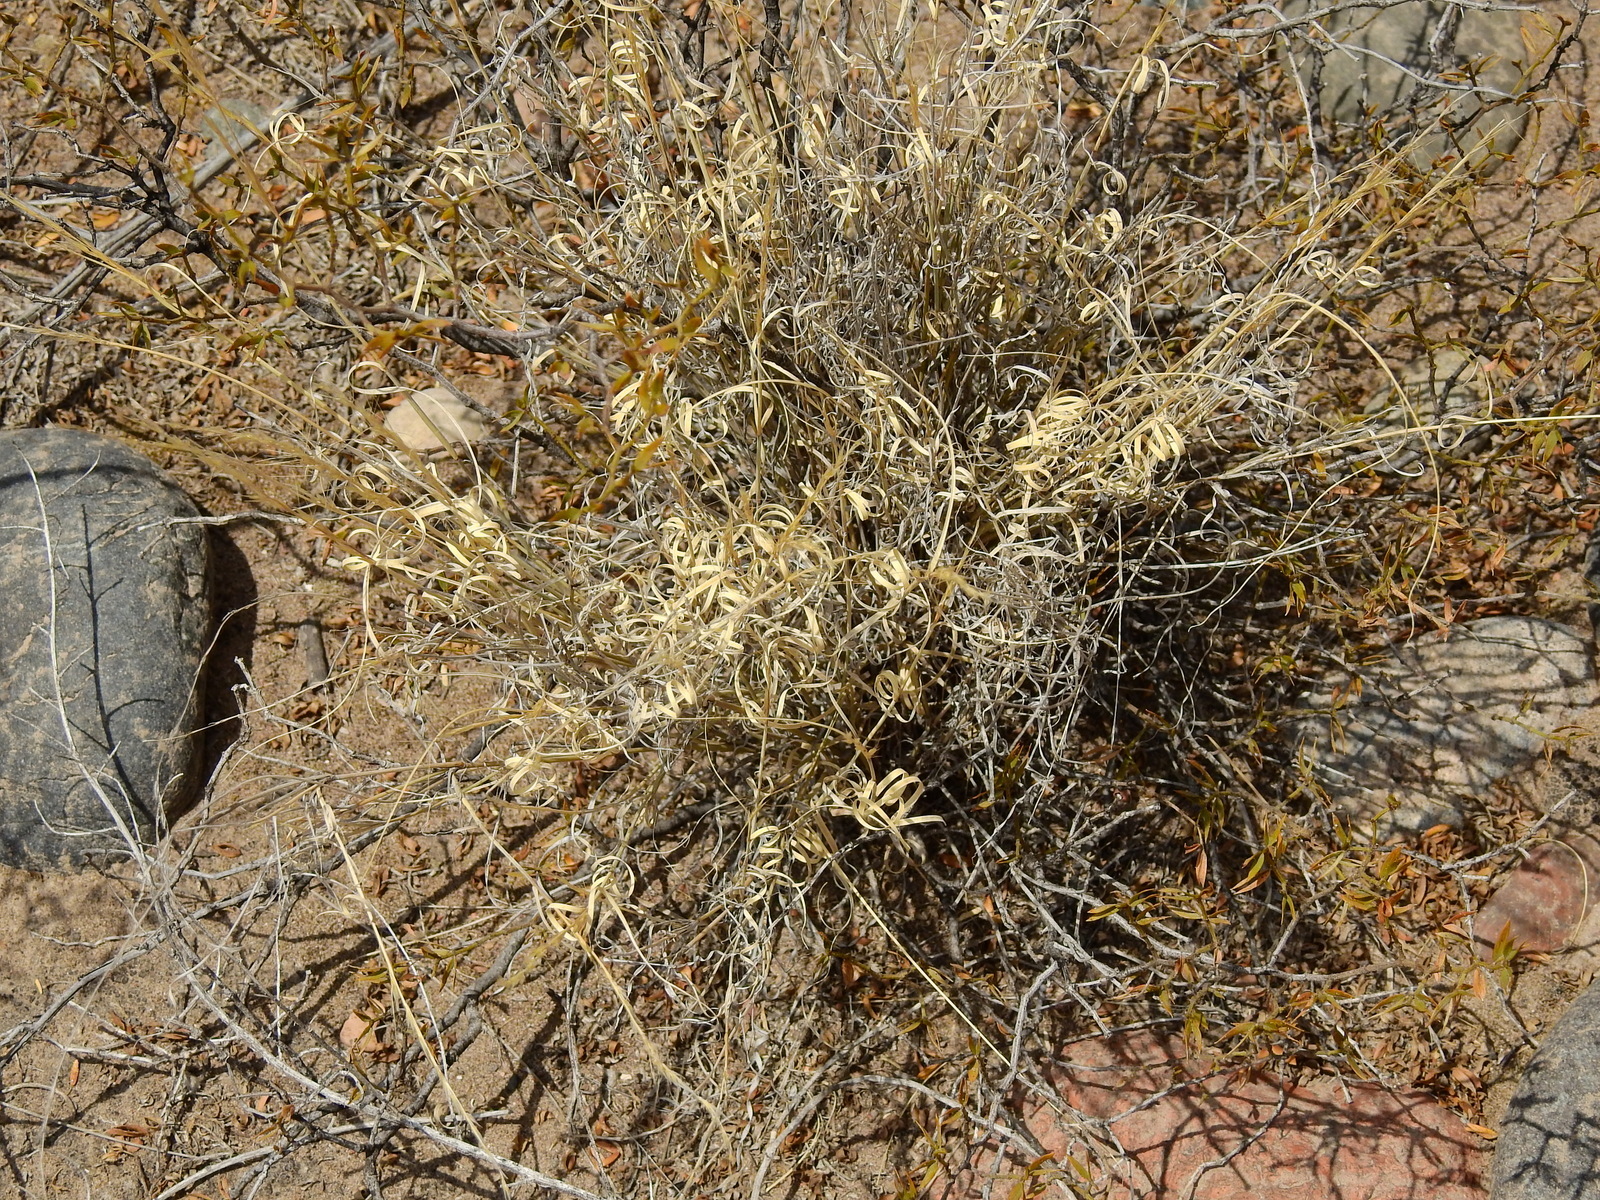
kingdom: Plantae
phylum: Tracheophyta
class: Liliopsida
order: Poales
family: Poaceae
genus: Aristida
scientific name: Aristida mendocina
